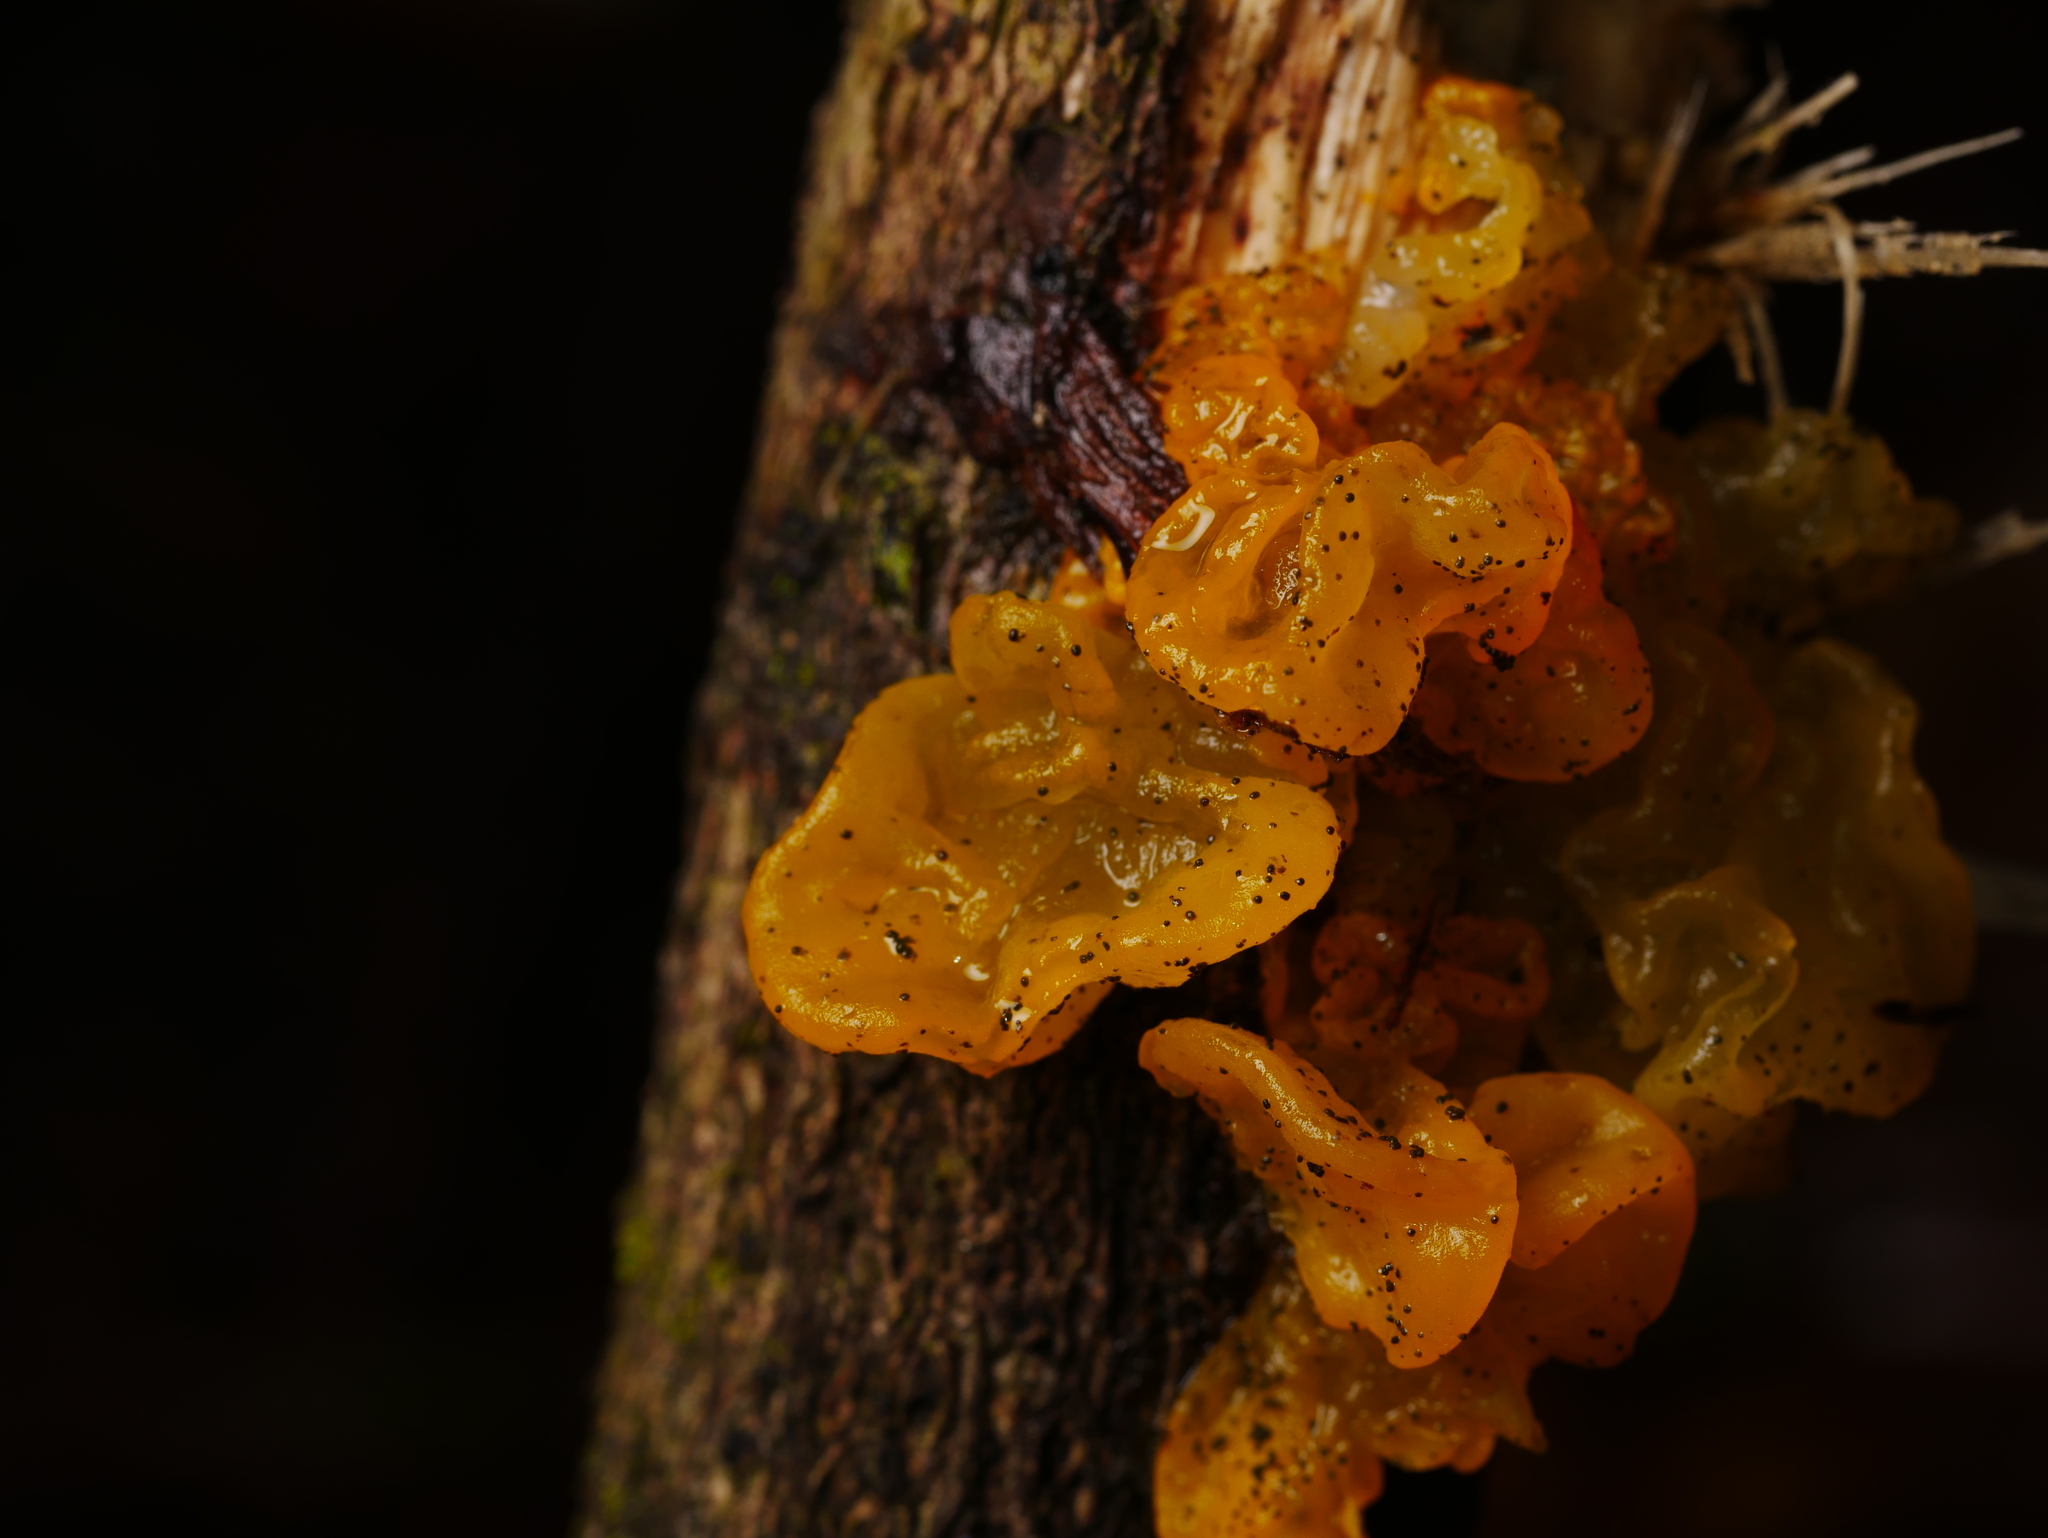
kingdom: Fungi
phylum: Basidiomycota
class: Tremellomycetes
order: Tremellales
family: Tremellaceae
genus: Tremella
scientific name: Tremella mesenterica
